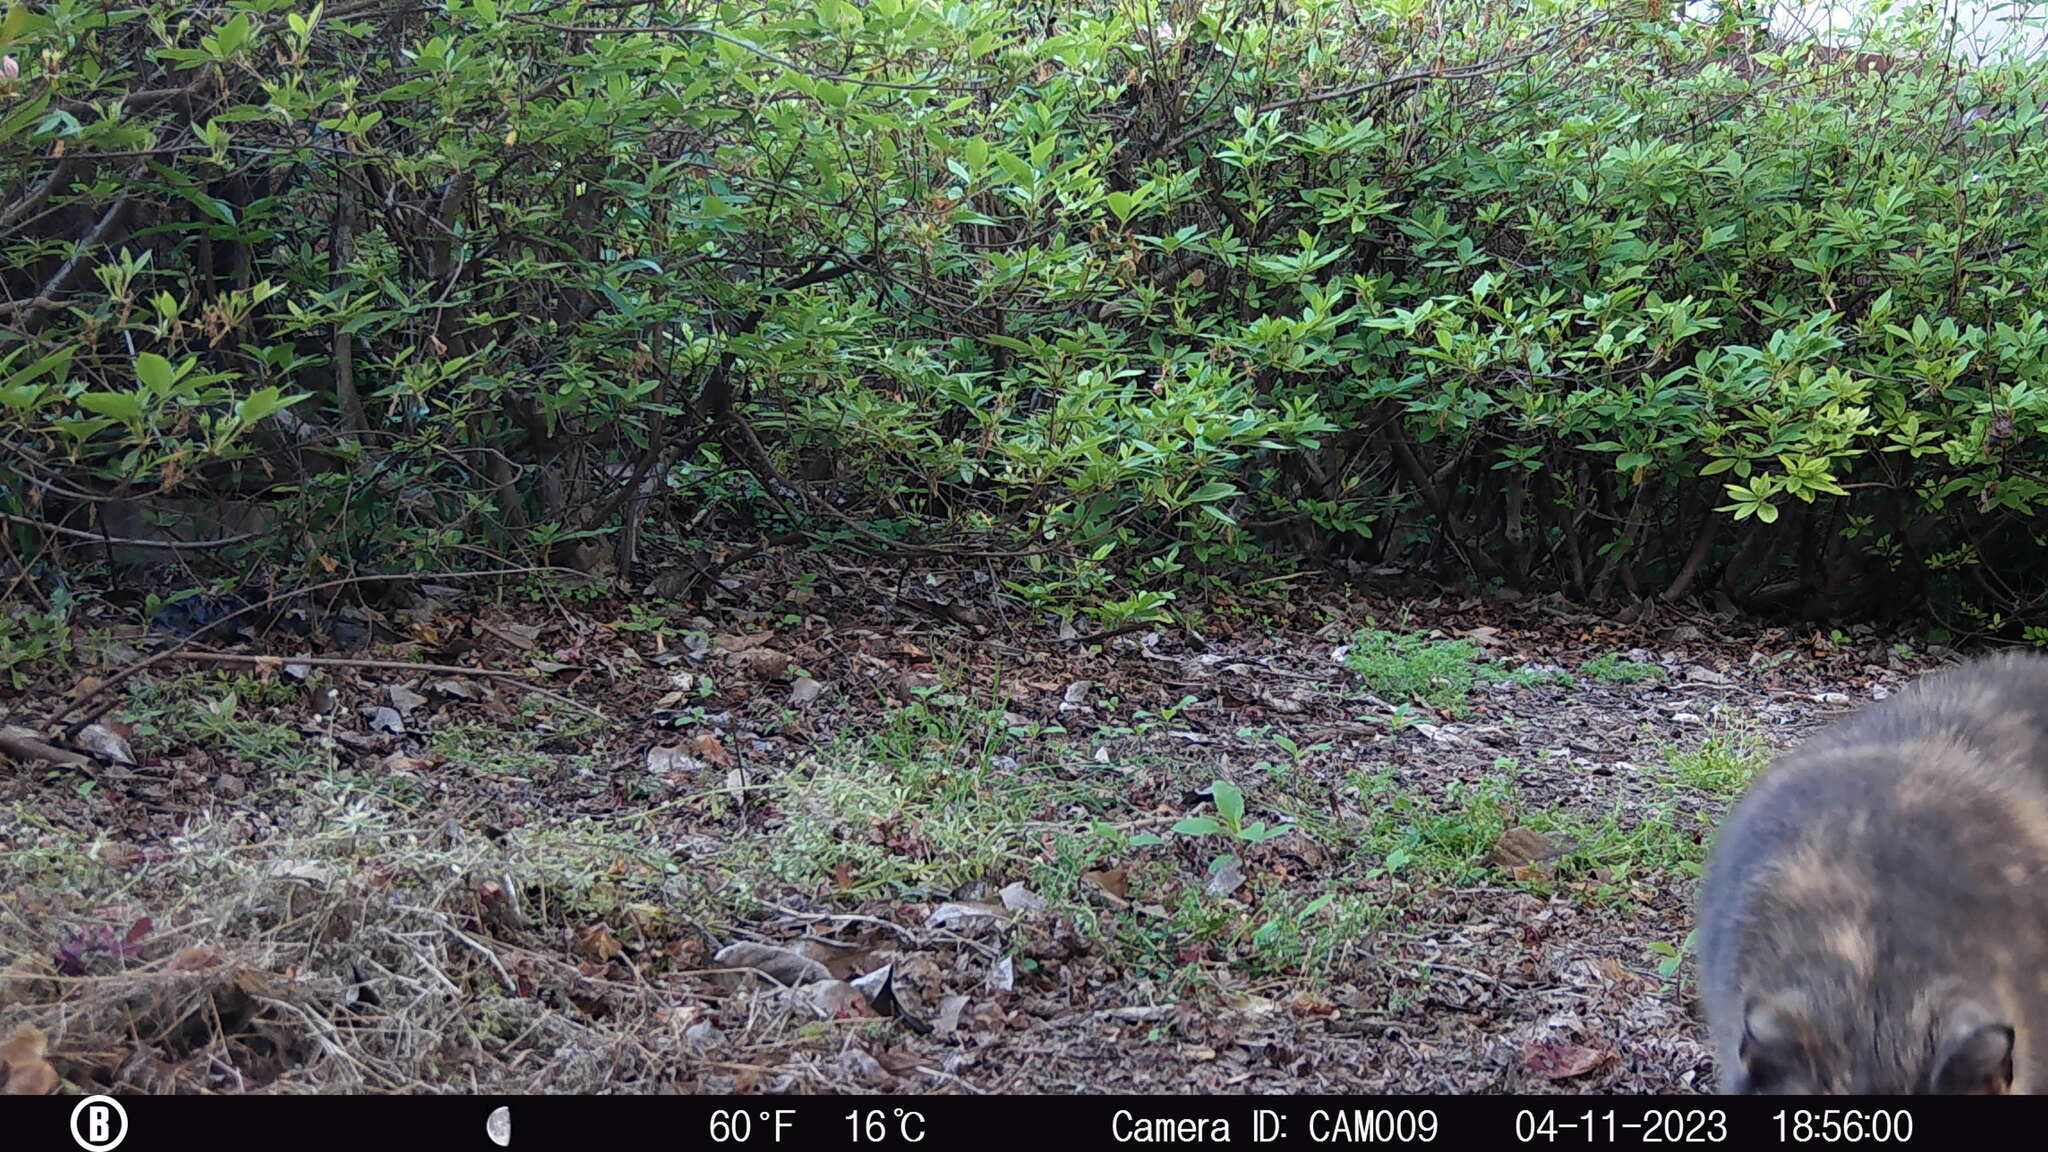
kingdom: Animalia
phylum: Chordata
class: Mammalia
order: Carnivora
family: Felidae
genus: Felis
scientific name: Felis catus
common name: Domestic cat
